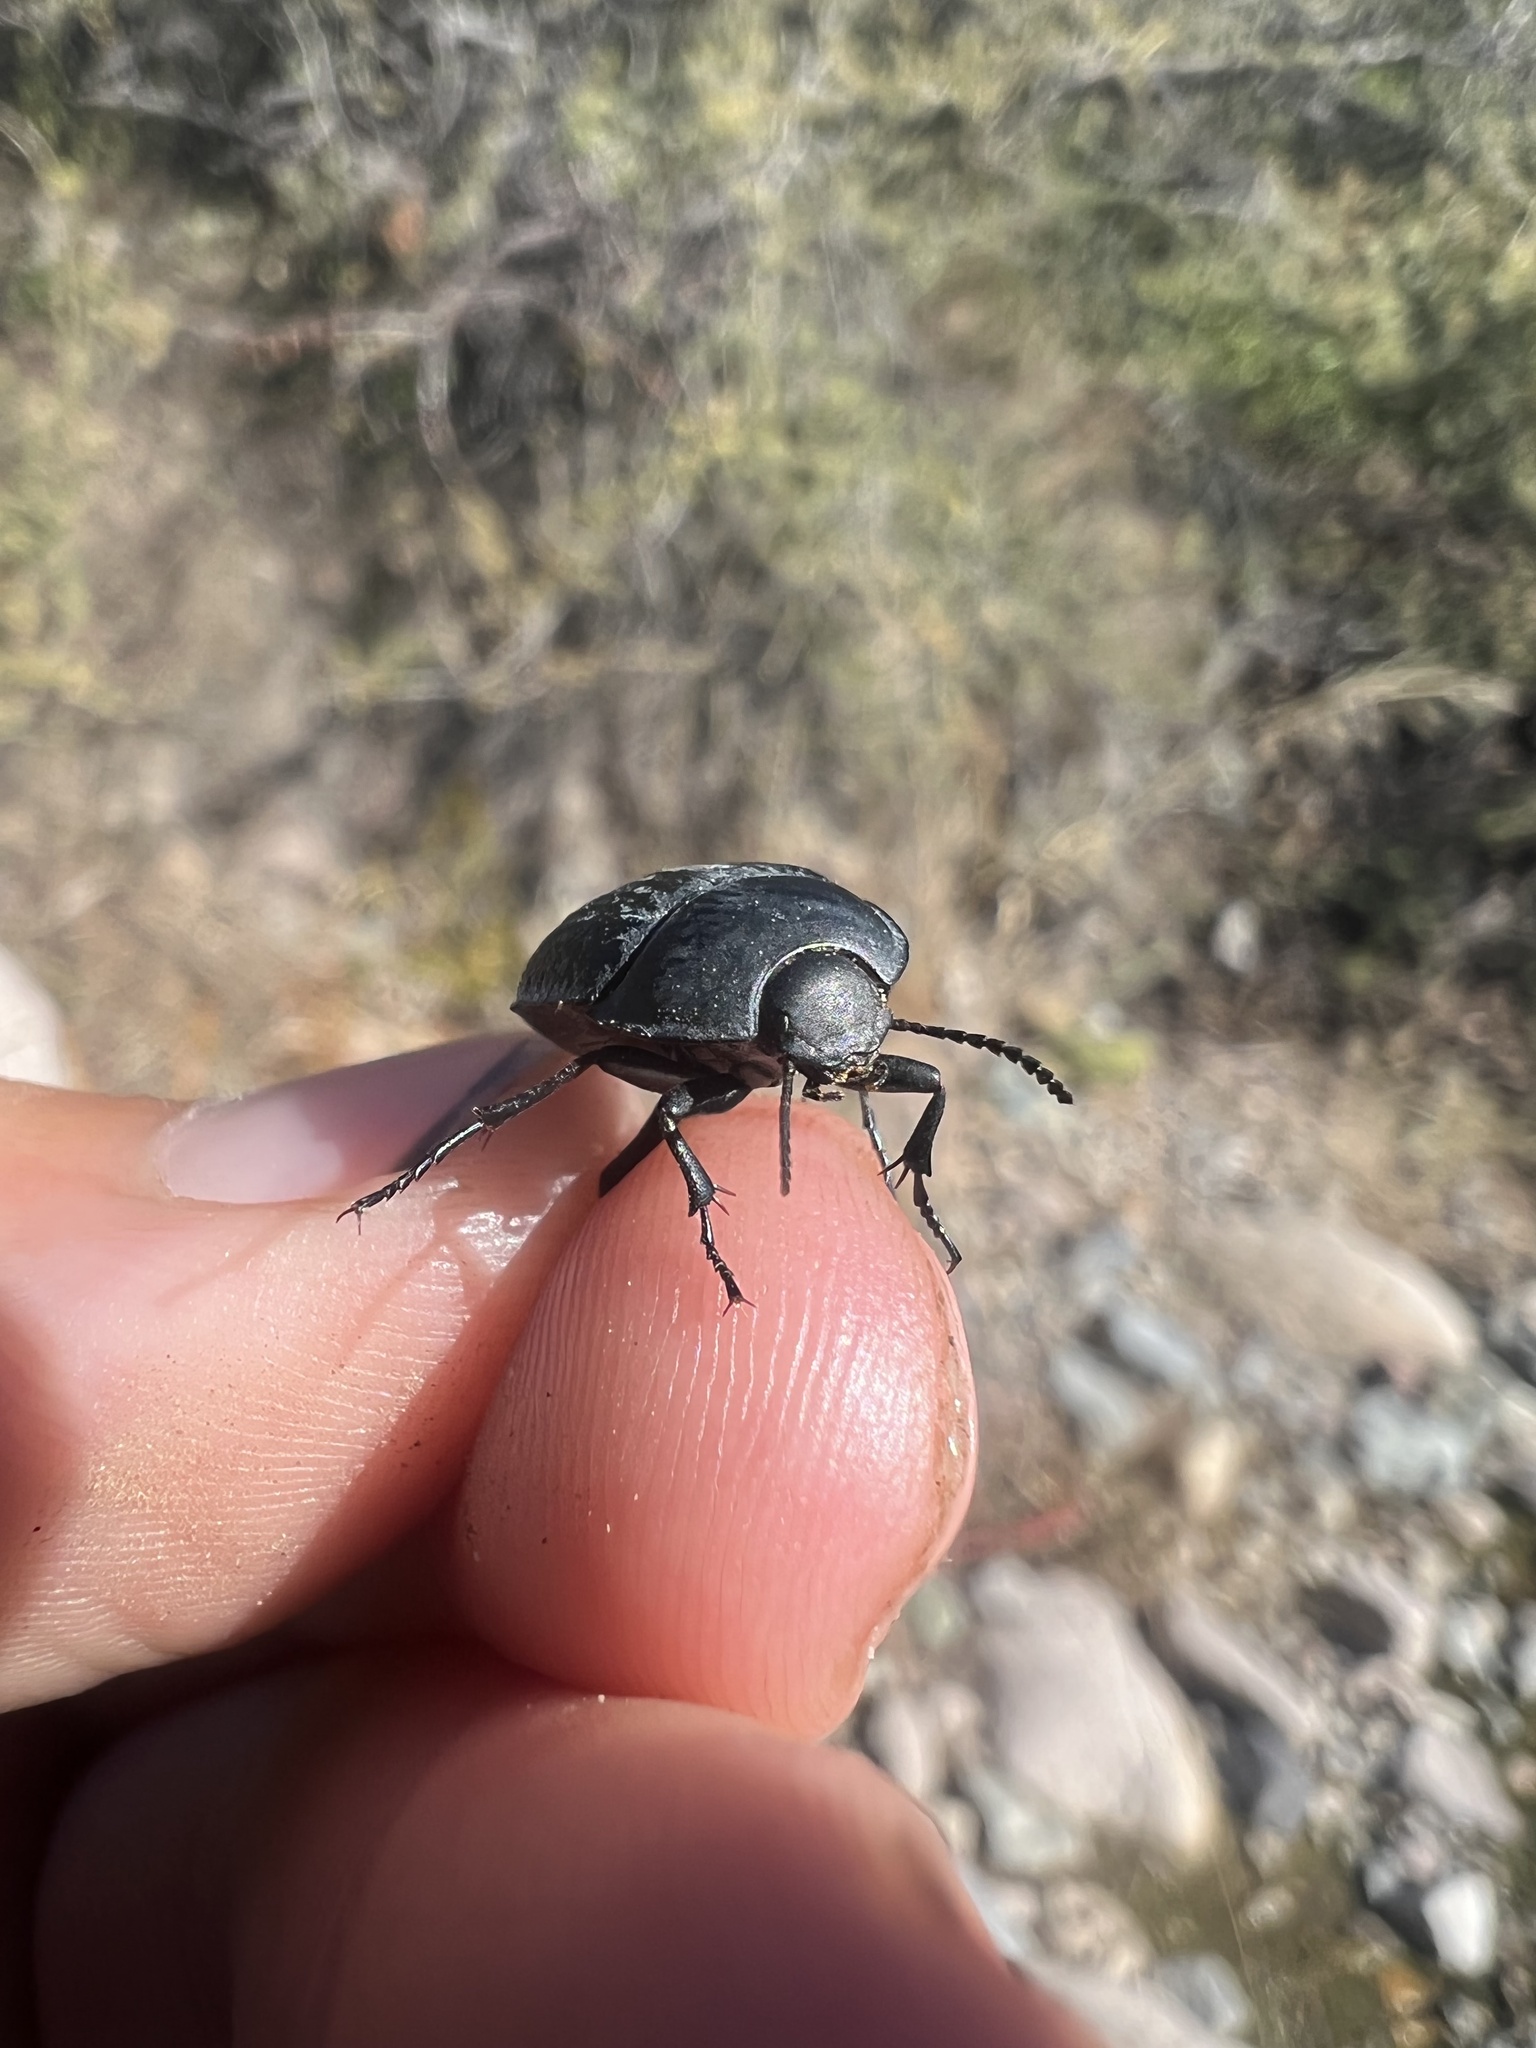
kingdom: Animalia
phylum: Arthropoda
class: Insecta
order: Coleoptera
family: Tenebrionidae
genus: Eusattus
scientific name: Eusattus reticulatus
